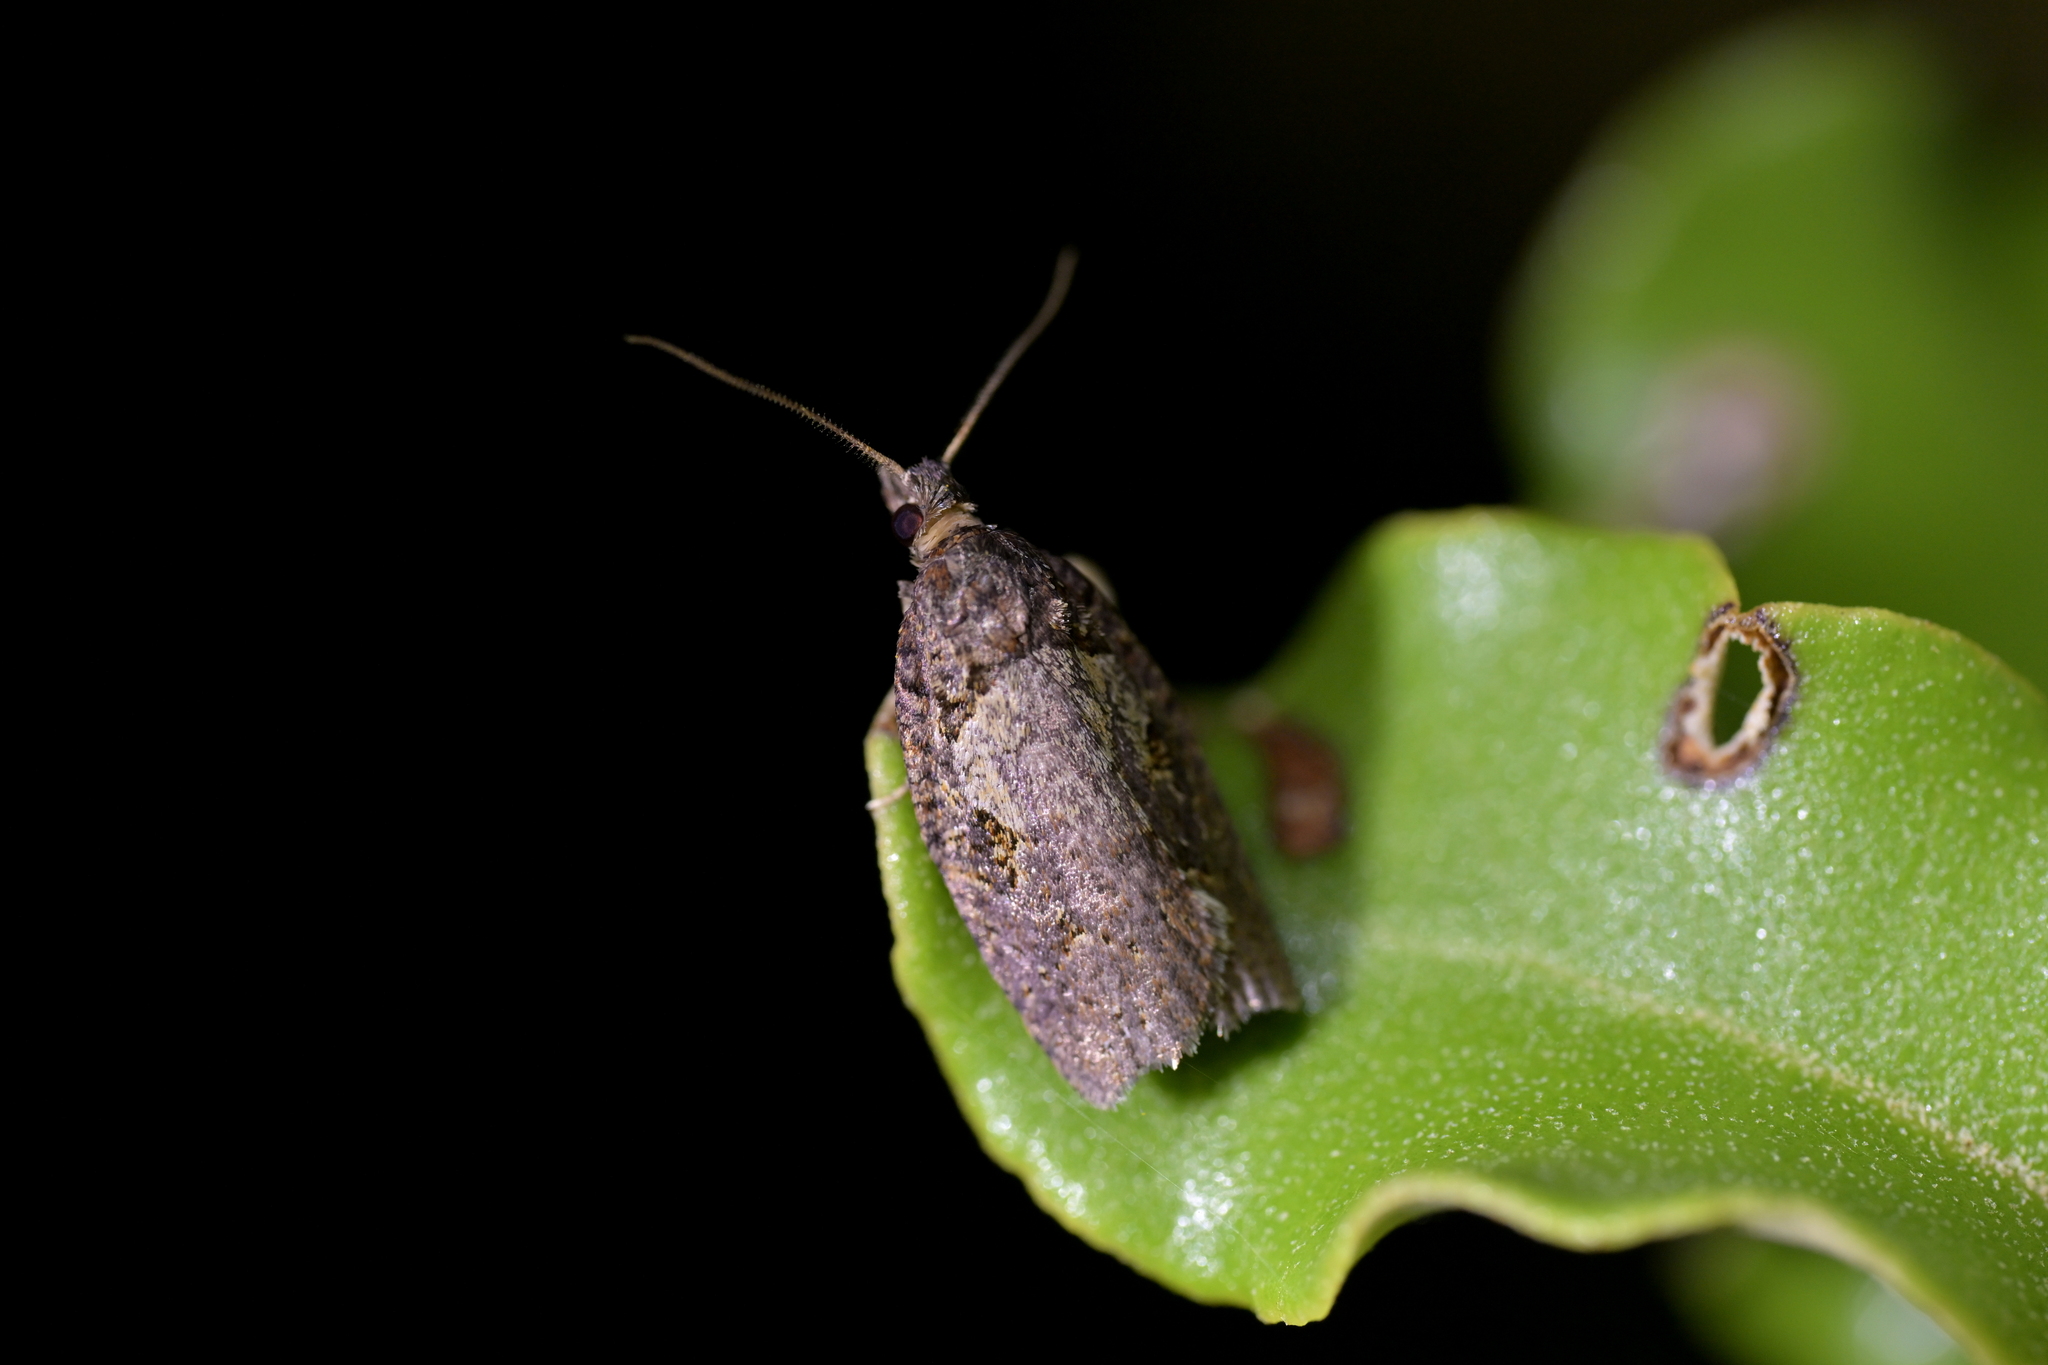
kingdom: Animalia
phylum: Arthropoda
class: Insecta
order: Lepidoptera
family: Tortricidae
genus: Ctenopseustis
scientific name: Ctenopseustis obliquana
